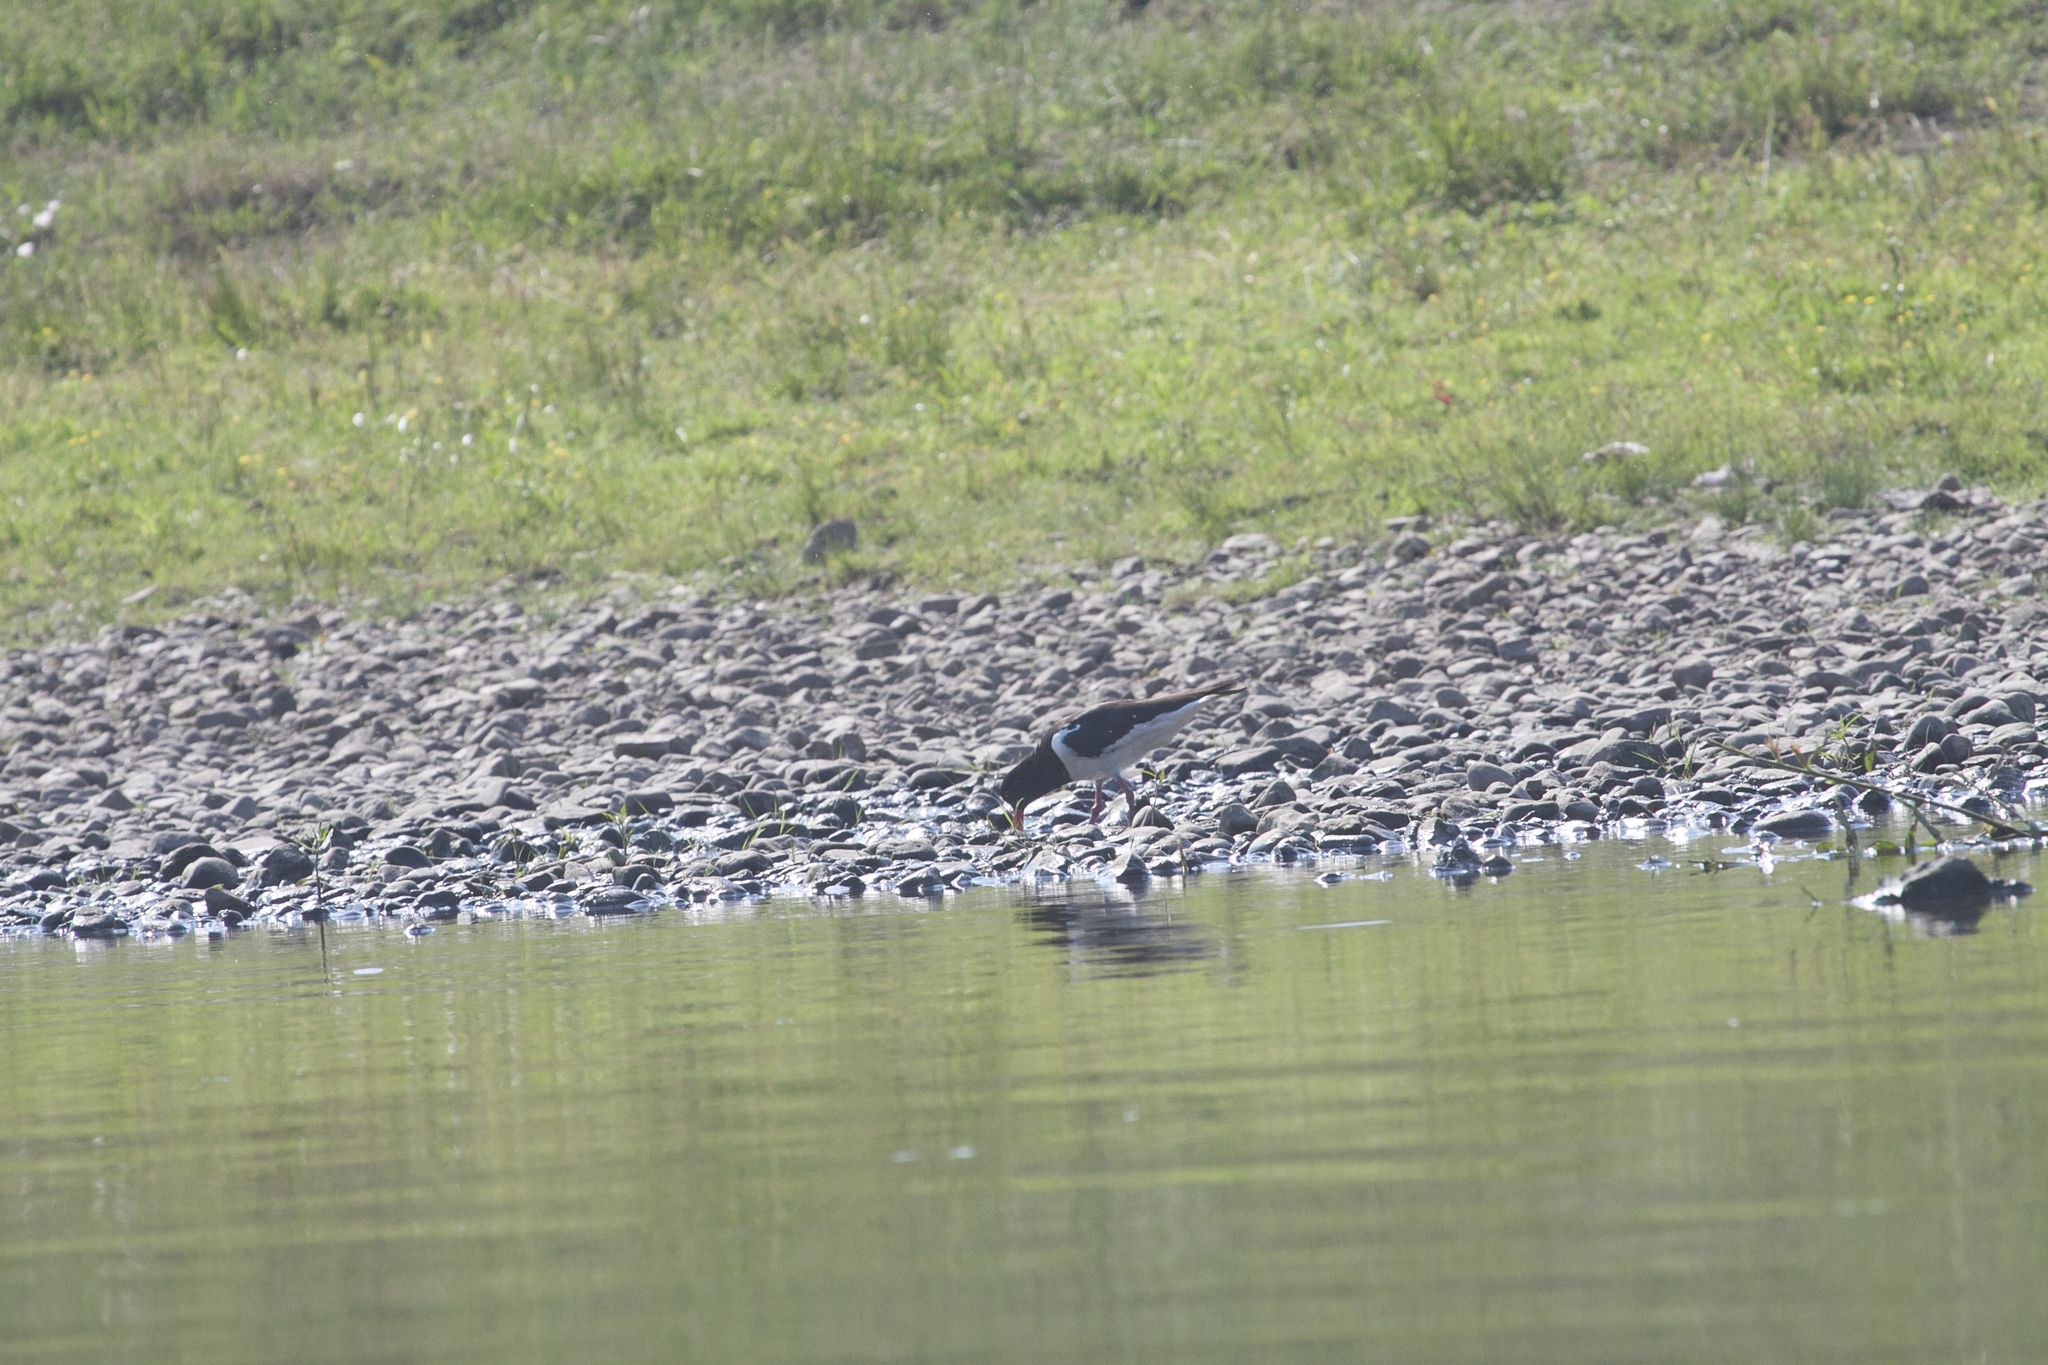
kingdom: Animalia
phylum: Chordata
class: Aves
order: Charadriiformes
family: Haematopodidae
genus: Haematopus
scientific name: Haematopus ostralegus
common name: Eurasian oystercatcher
